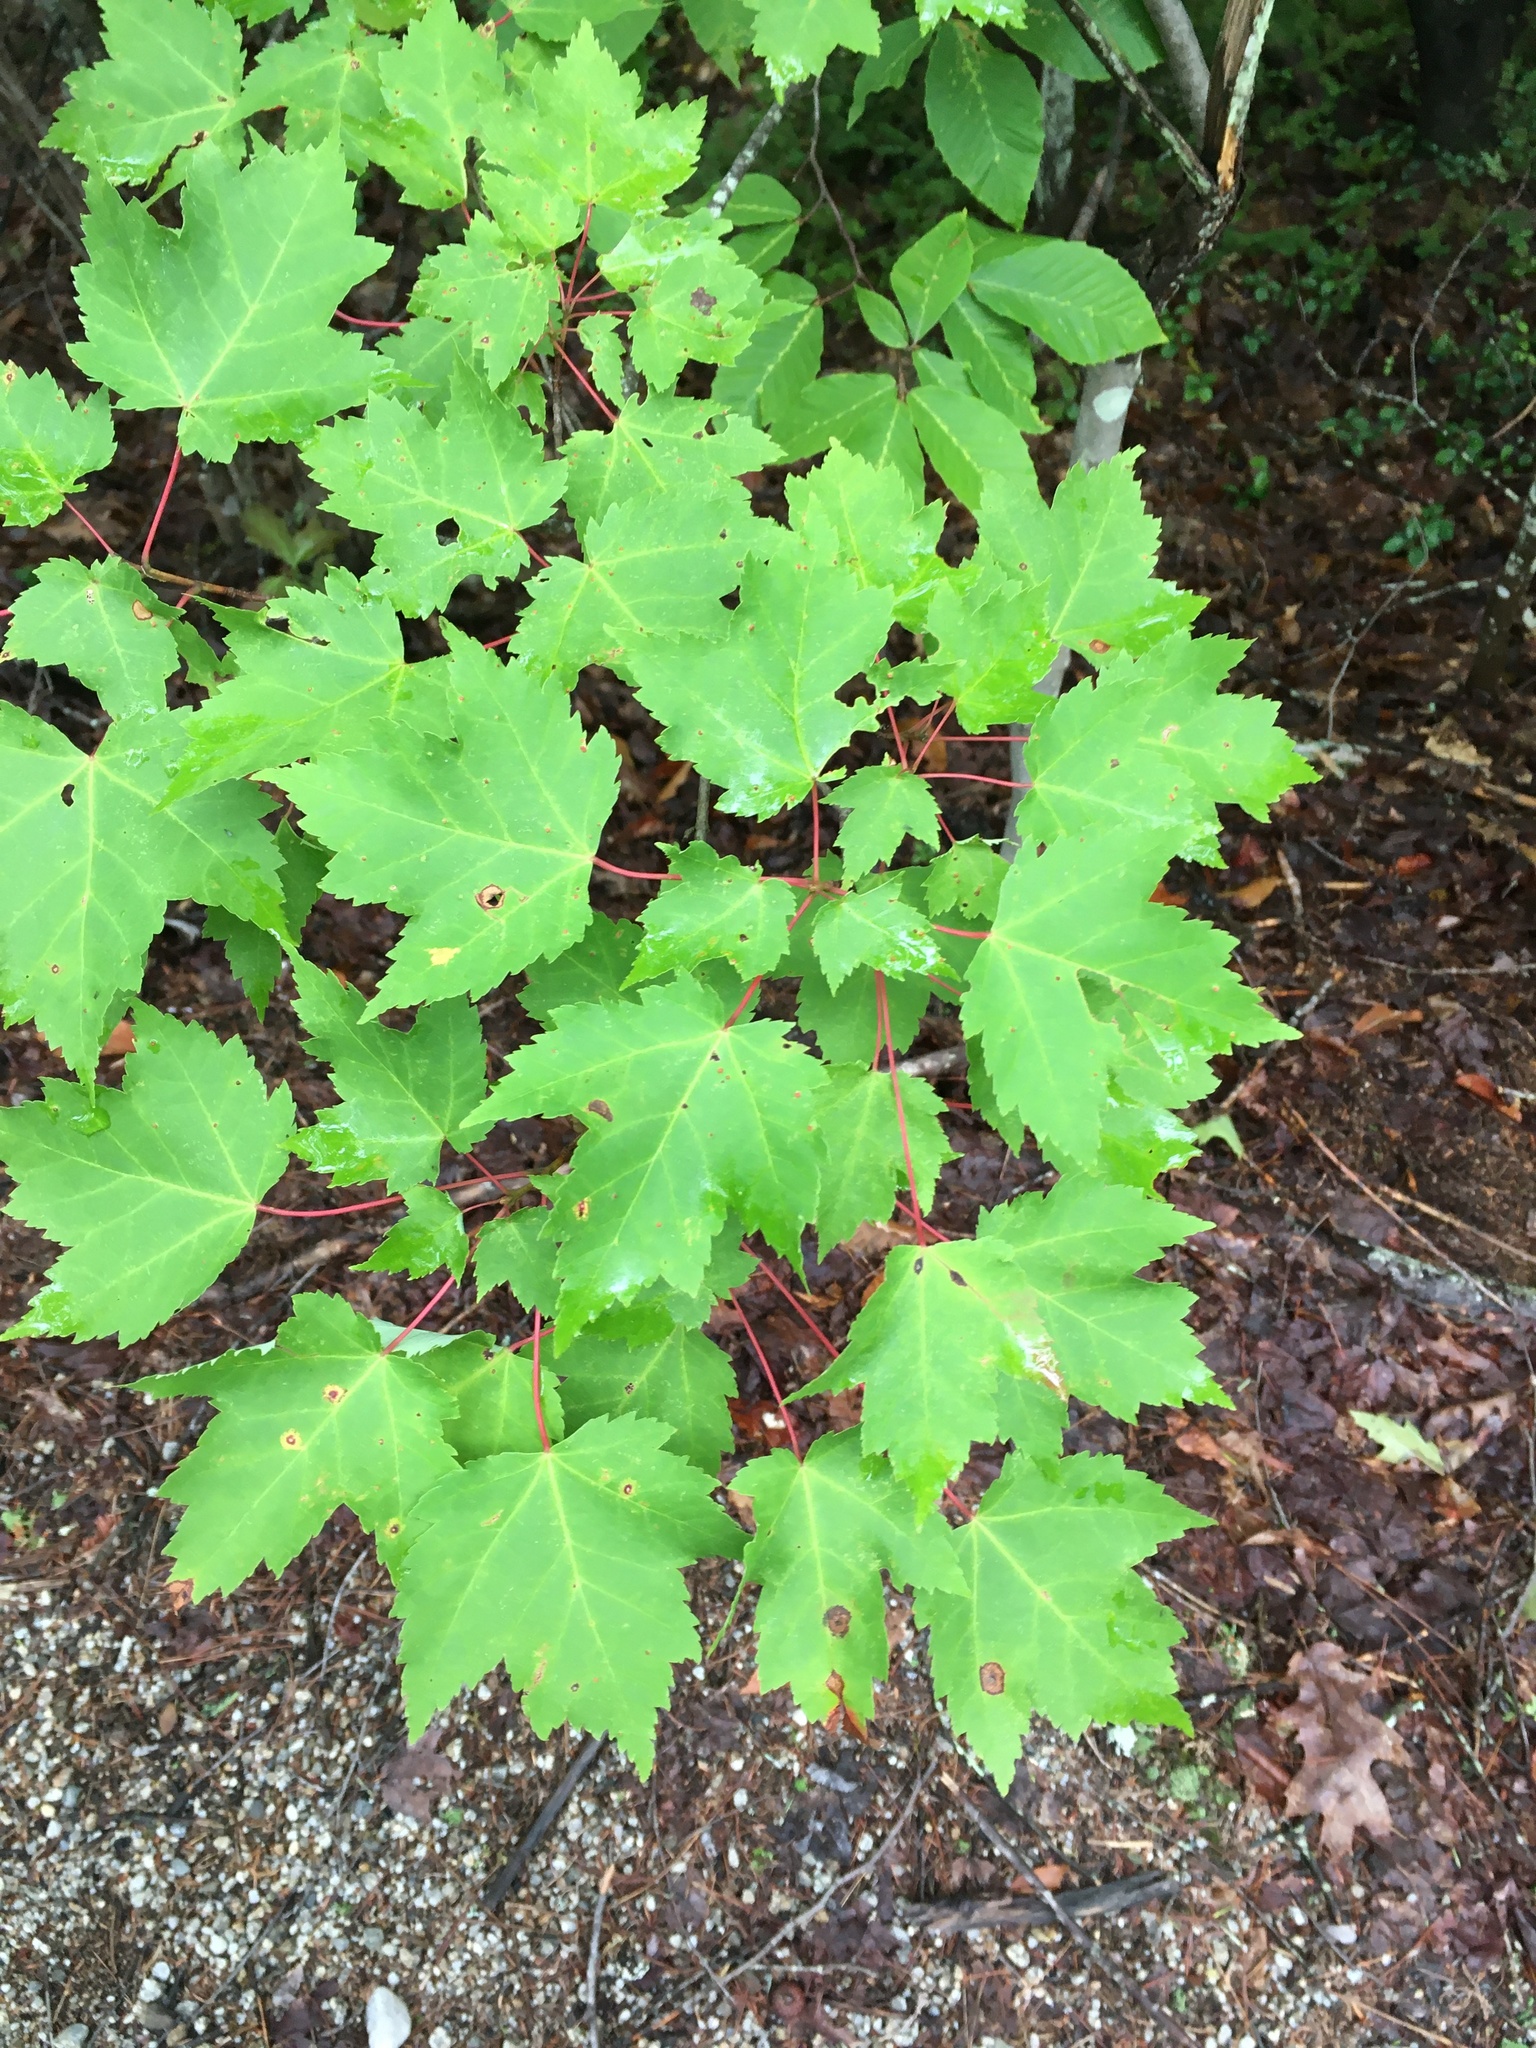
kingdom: Plantae
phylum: Tracheophyta
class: Magnoliopsida
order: Sapindales
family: Sapindaceae
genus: Acer
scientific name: Acer rubrum
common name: Red maple
